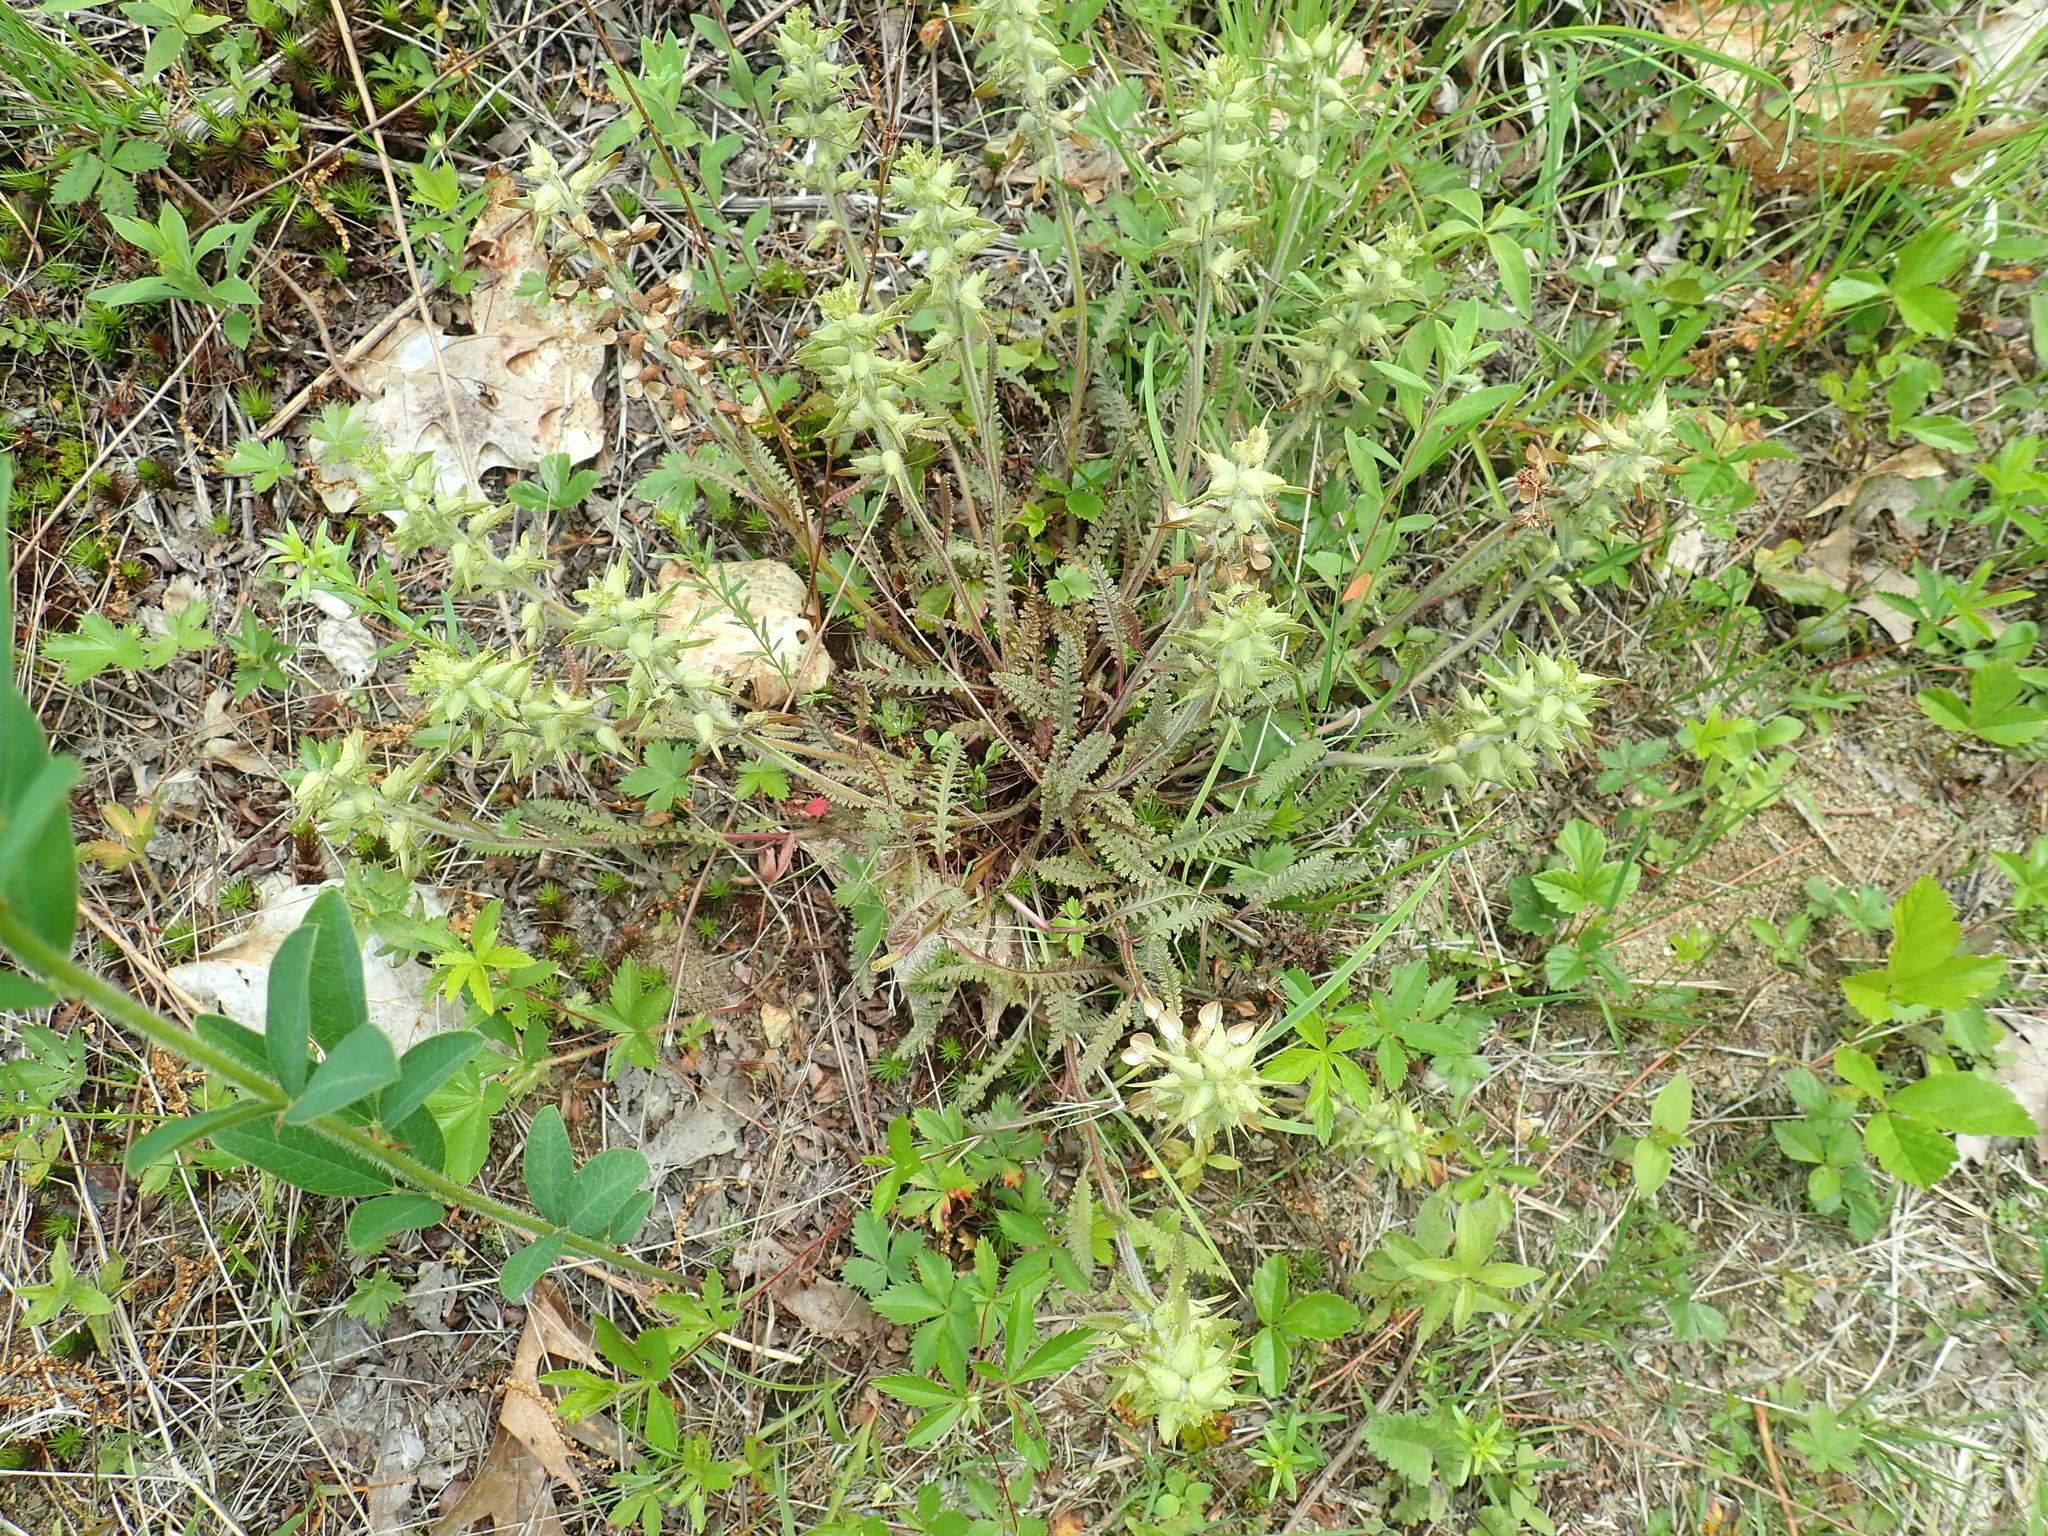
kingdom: Plantae
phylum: Tracheophyta
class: Magnoliopsida
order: Lamiales
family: Orobanchaceae
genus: Pedicularis
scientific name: Pedicularis canadensis
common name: Early lousewort
